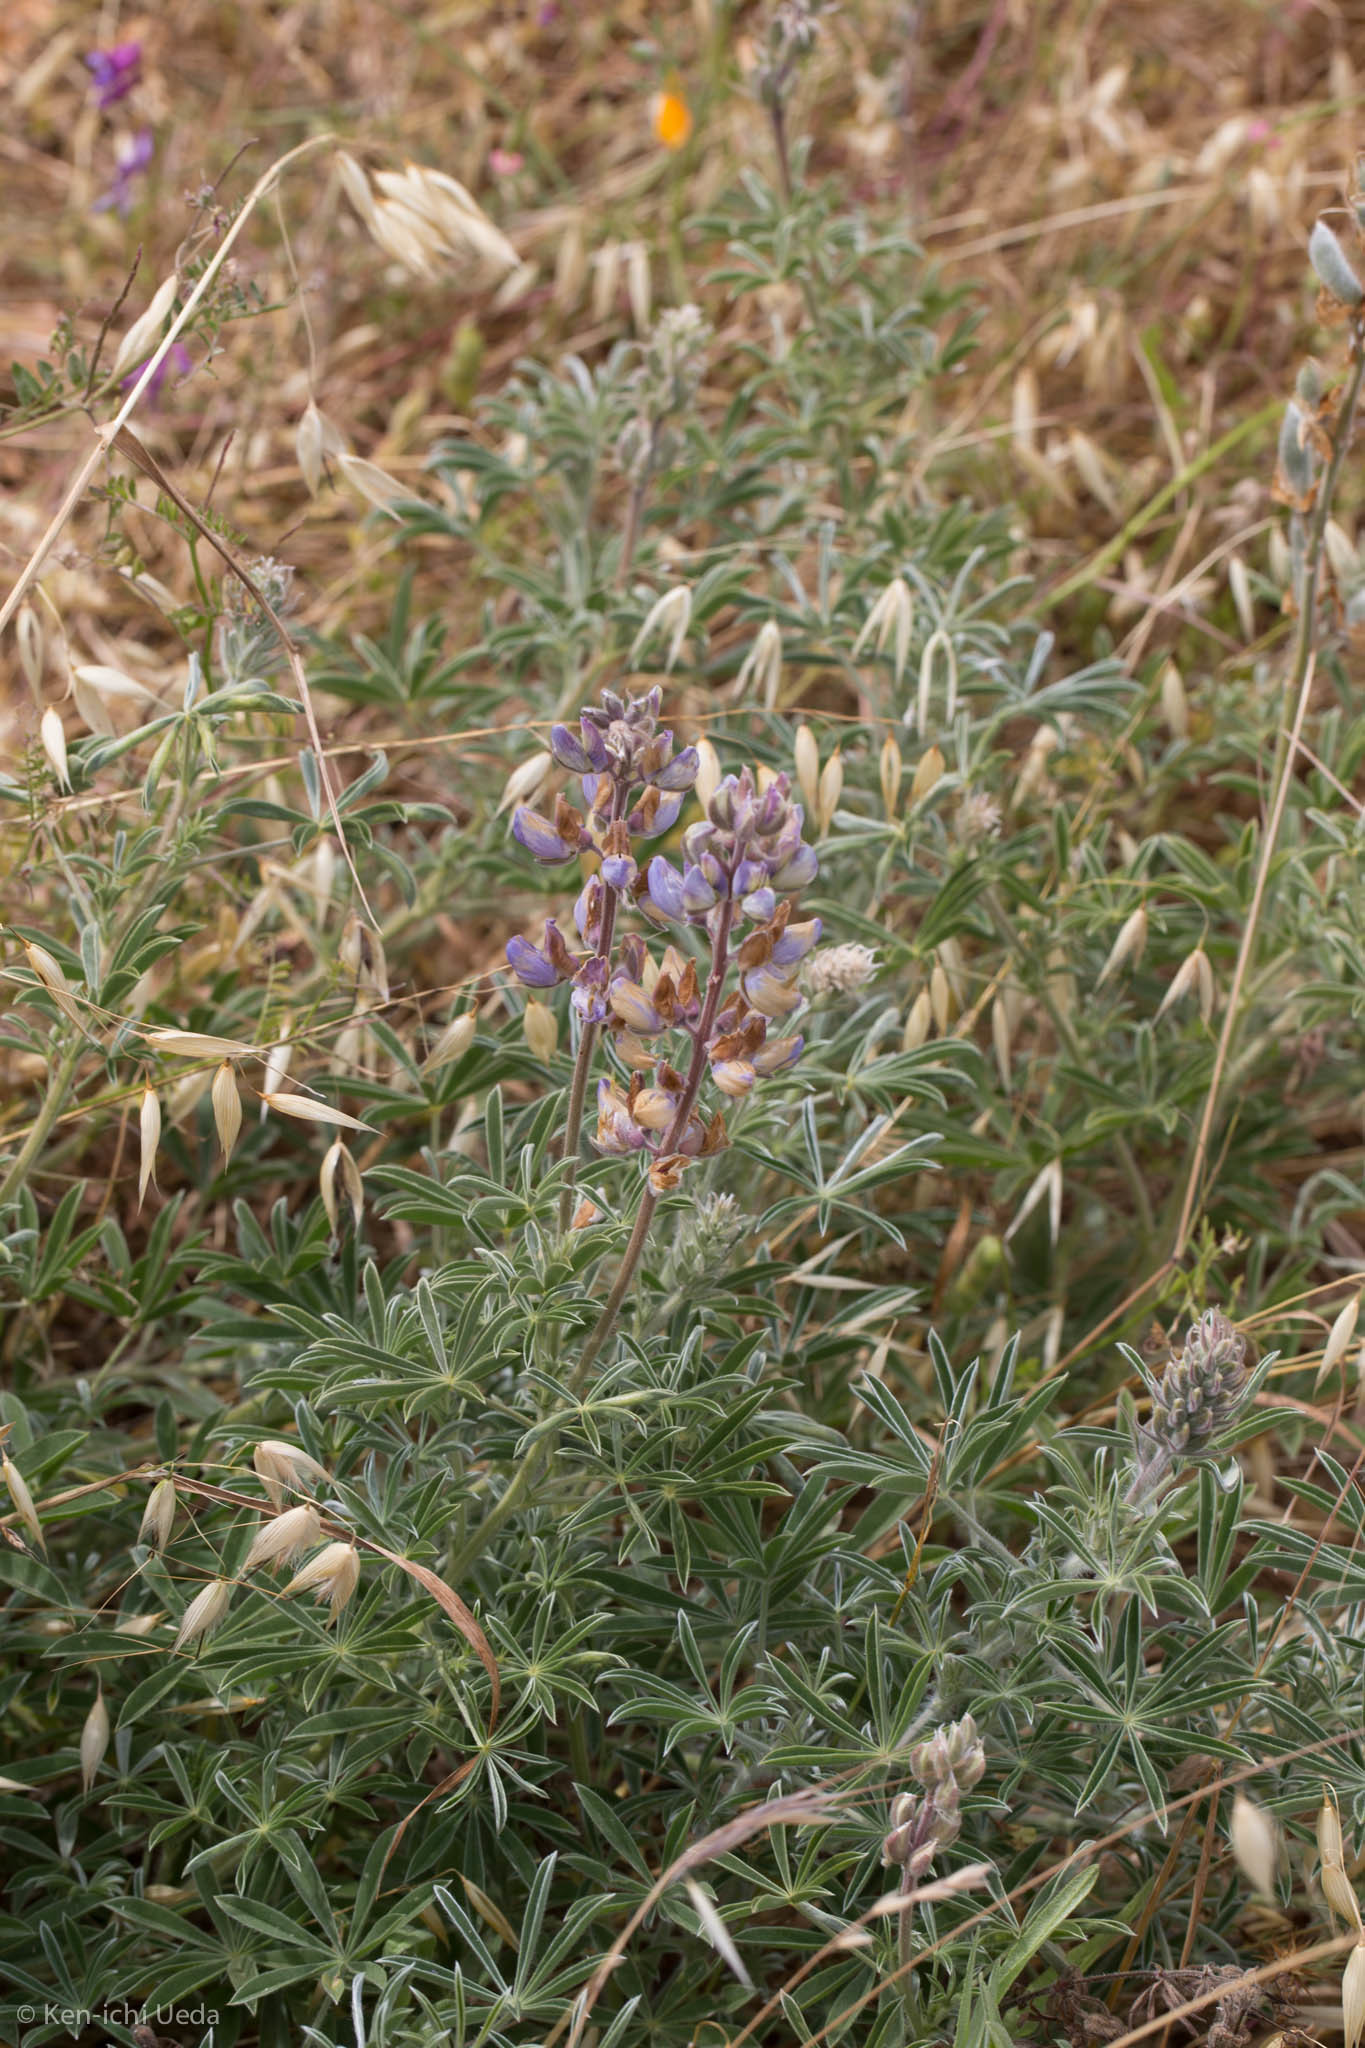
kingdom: Plantae
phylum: Tracheophyta
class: Magnoliopsida
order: Fabales
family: Fabaceae
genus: Lupinus
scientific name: Lupinus formosus
